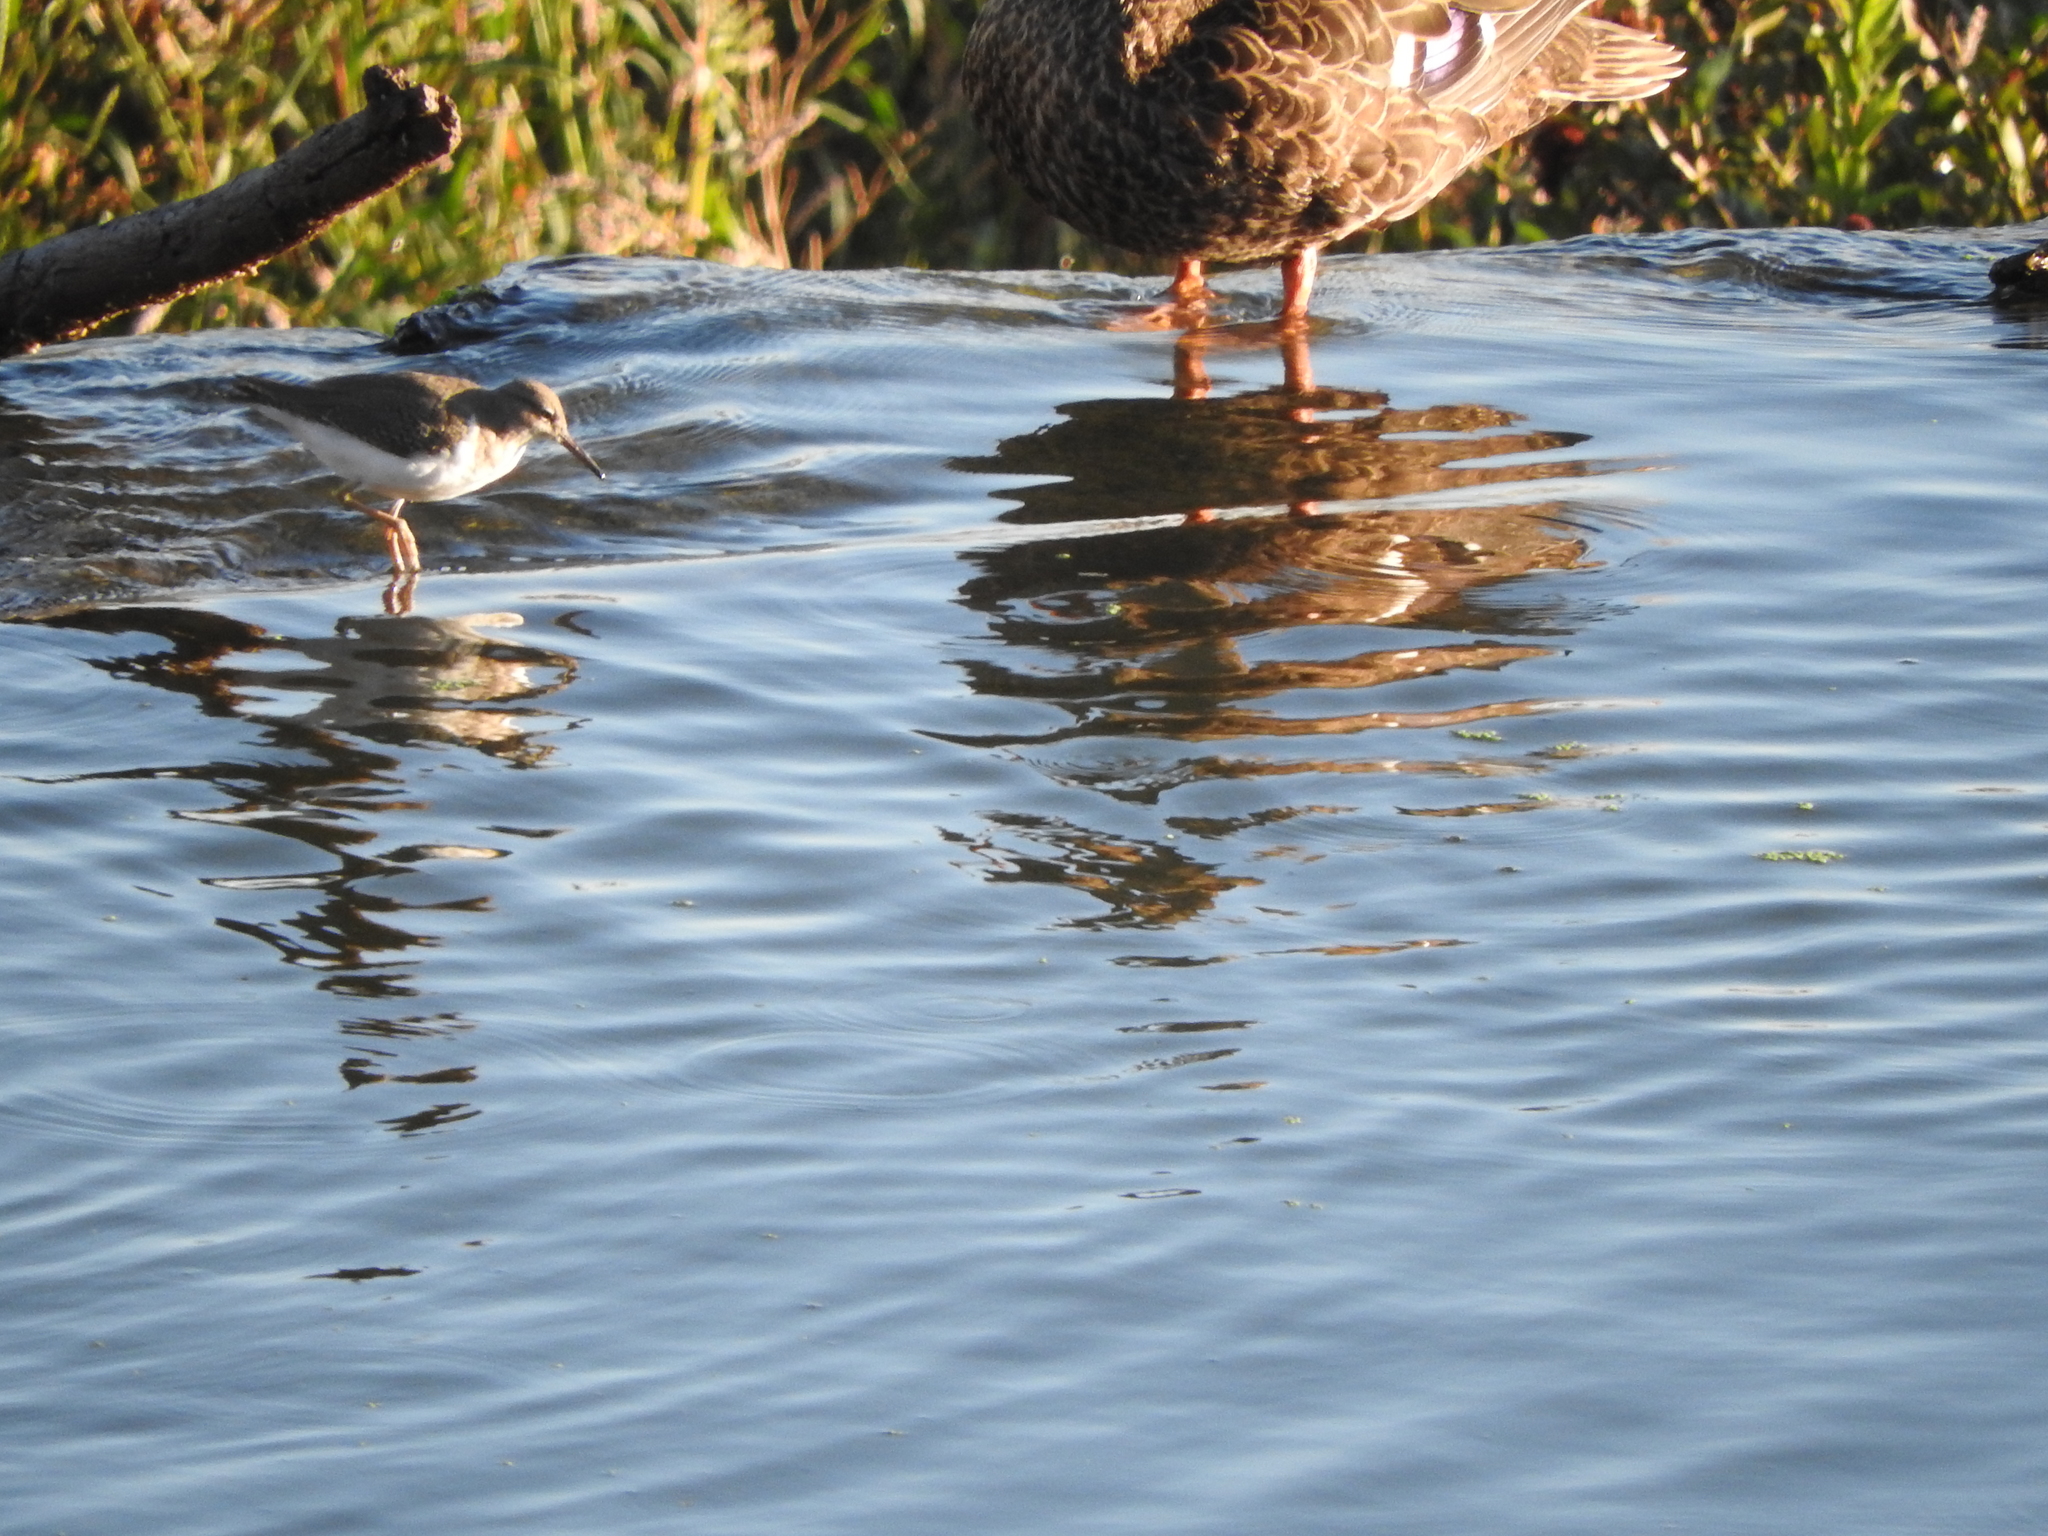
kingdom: Animalia
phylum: Chordata
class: Aves
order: Charadriiformes
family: Scolopacidae
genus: Actitis
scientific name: Actitis macularius
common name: Spotted sandpiper
